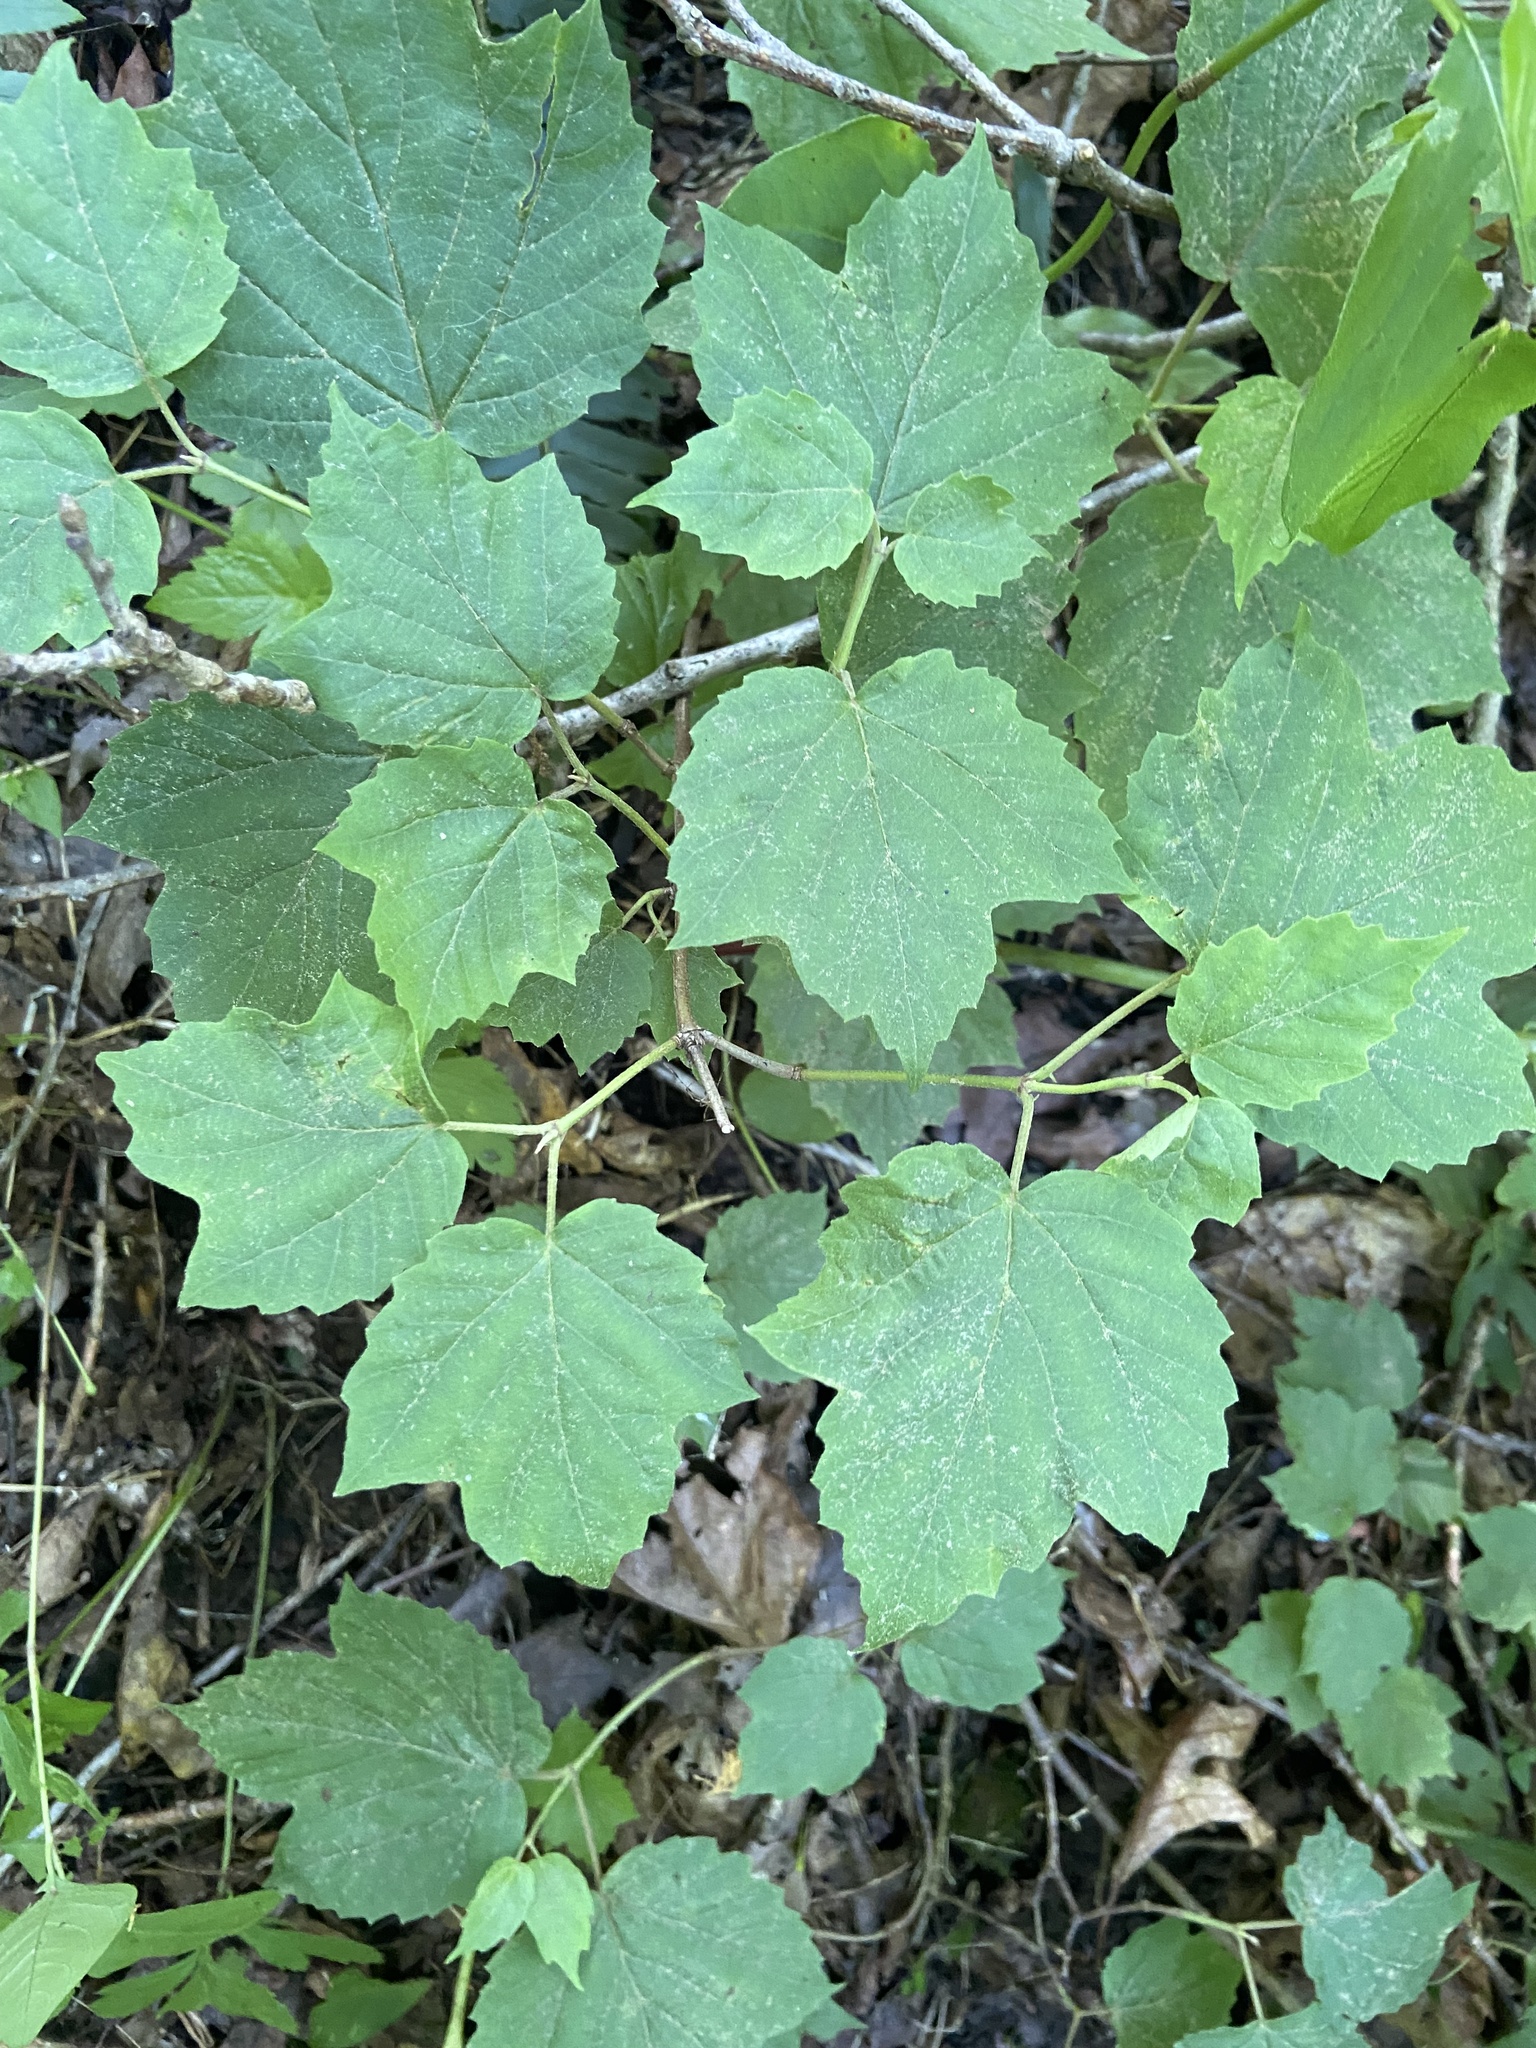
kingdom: Plantae
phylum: Tracheophyta
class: Magnoliopsida
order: Dipsacales
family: Viburnaceae
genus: Viburnum
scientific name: Viburnum acerifolium
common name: Dockmackie
